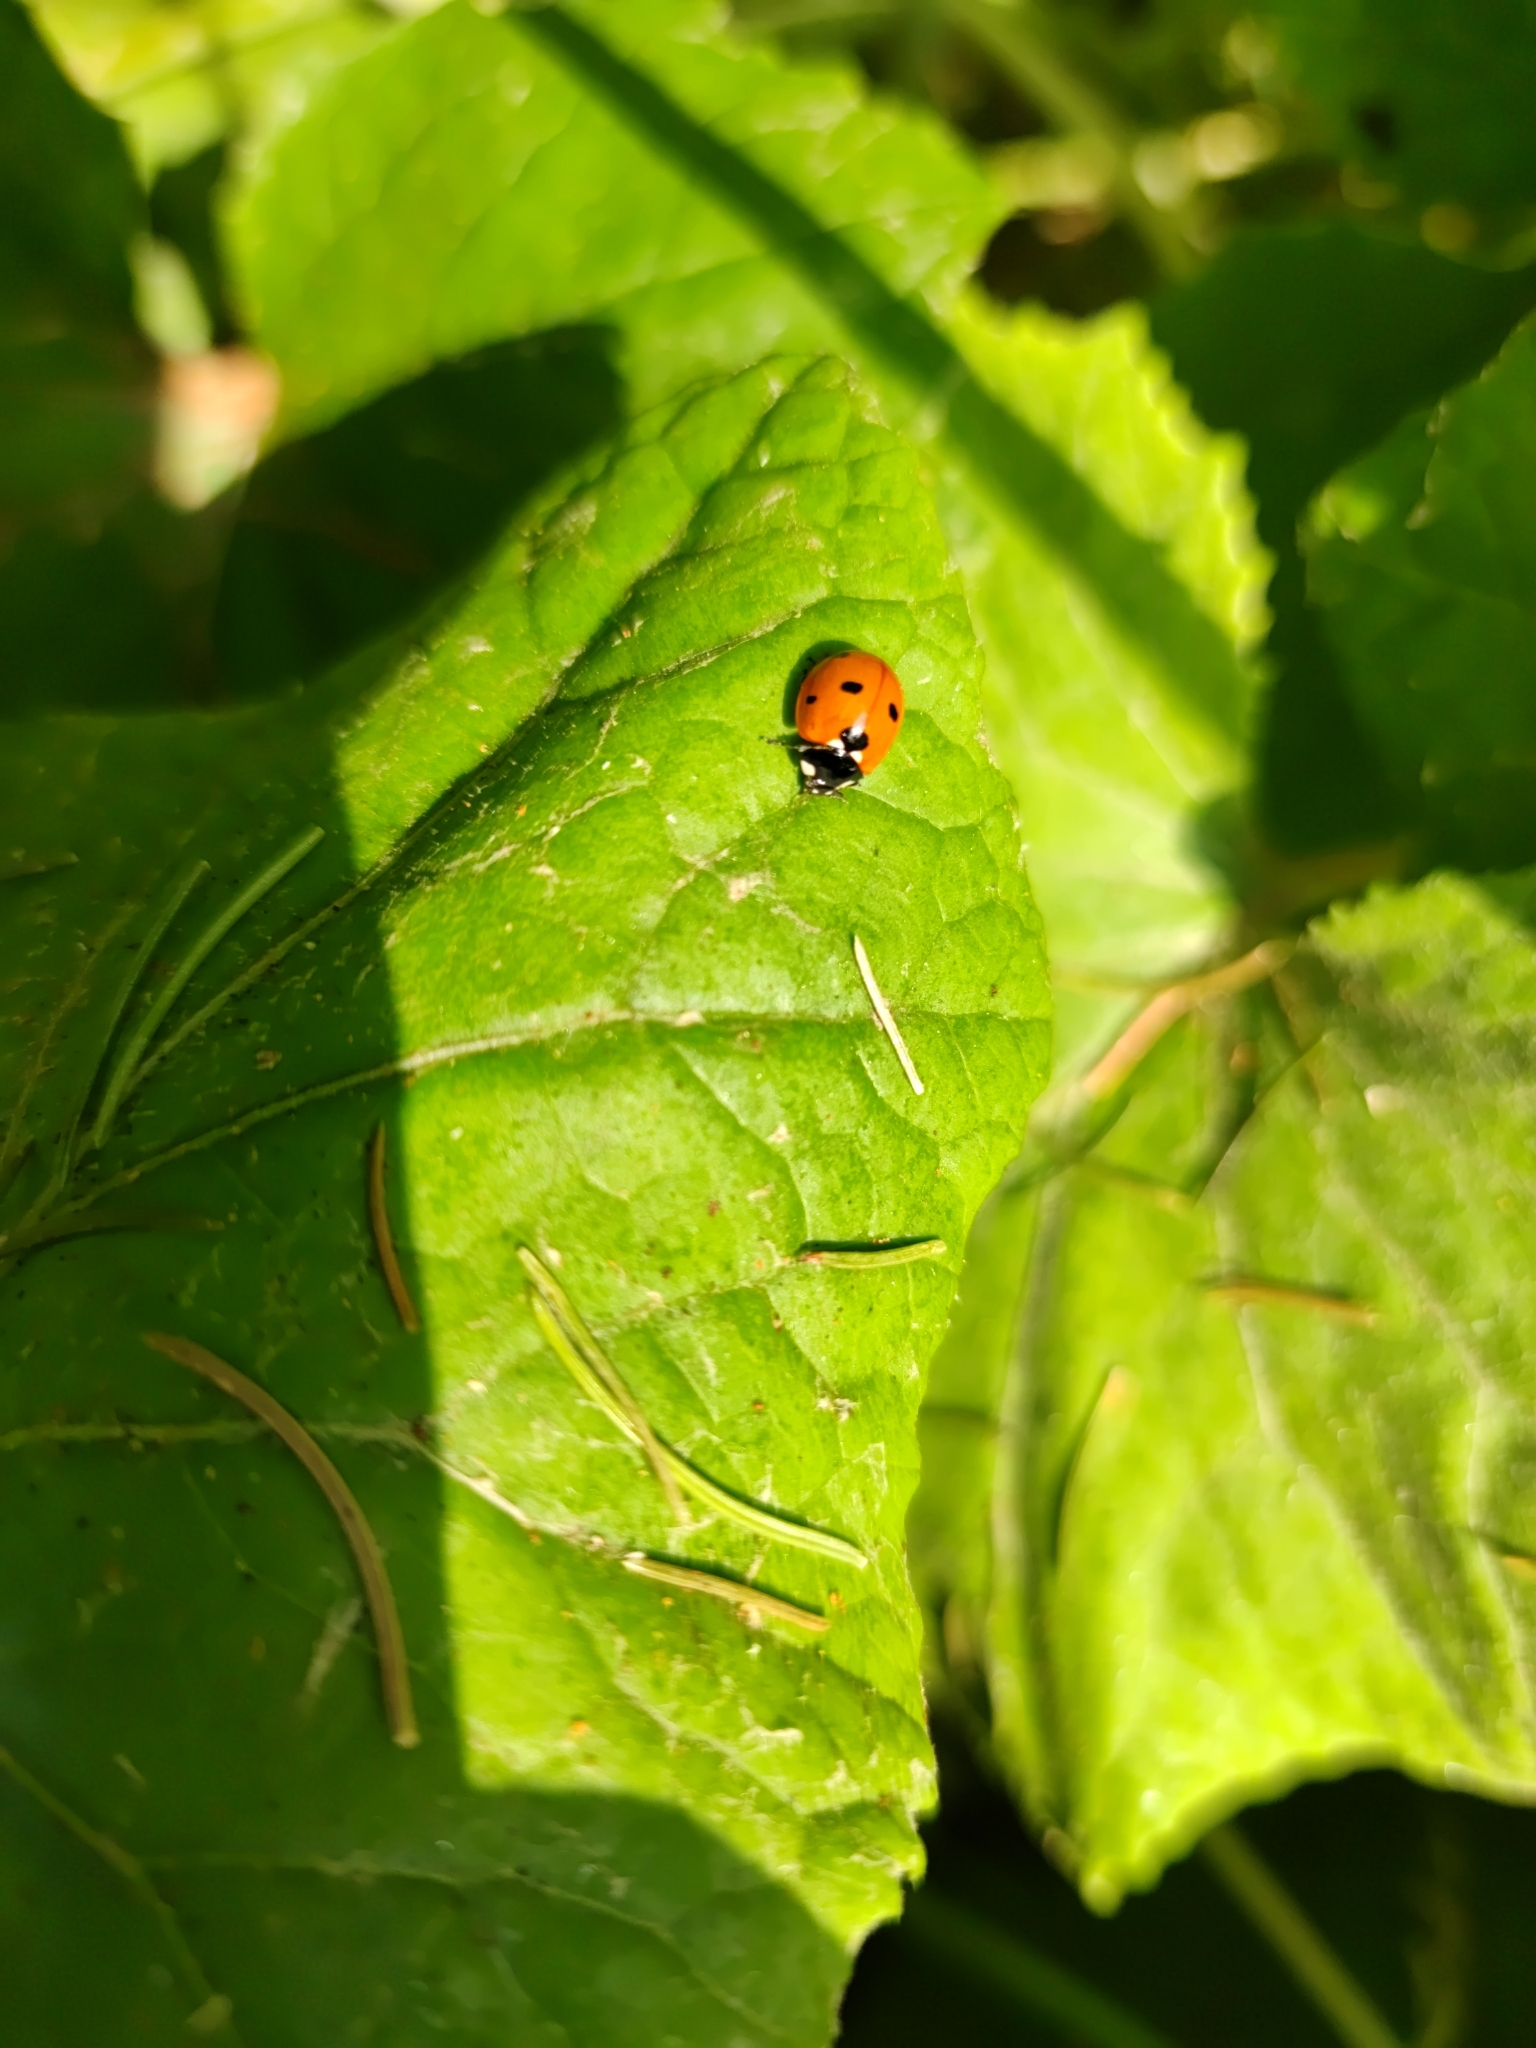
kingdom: Animalia
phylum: Arthropoda
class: Insecta
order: Coleoptera
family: Coccinellidae
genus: Coccinella
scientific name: Coccinella septempunctata
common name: Sevenspotted lady beetle
